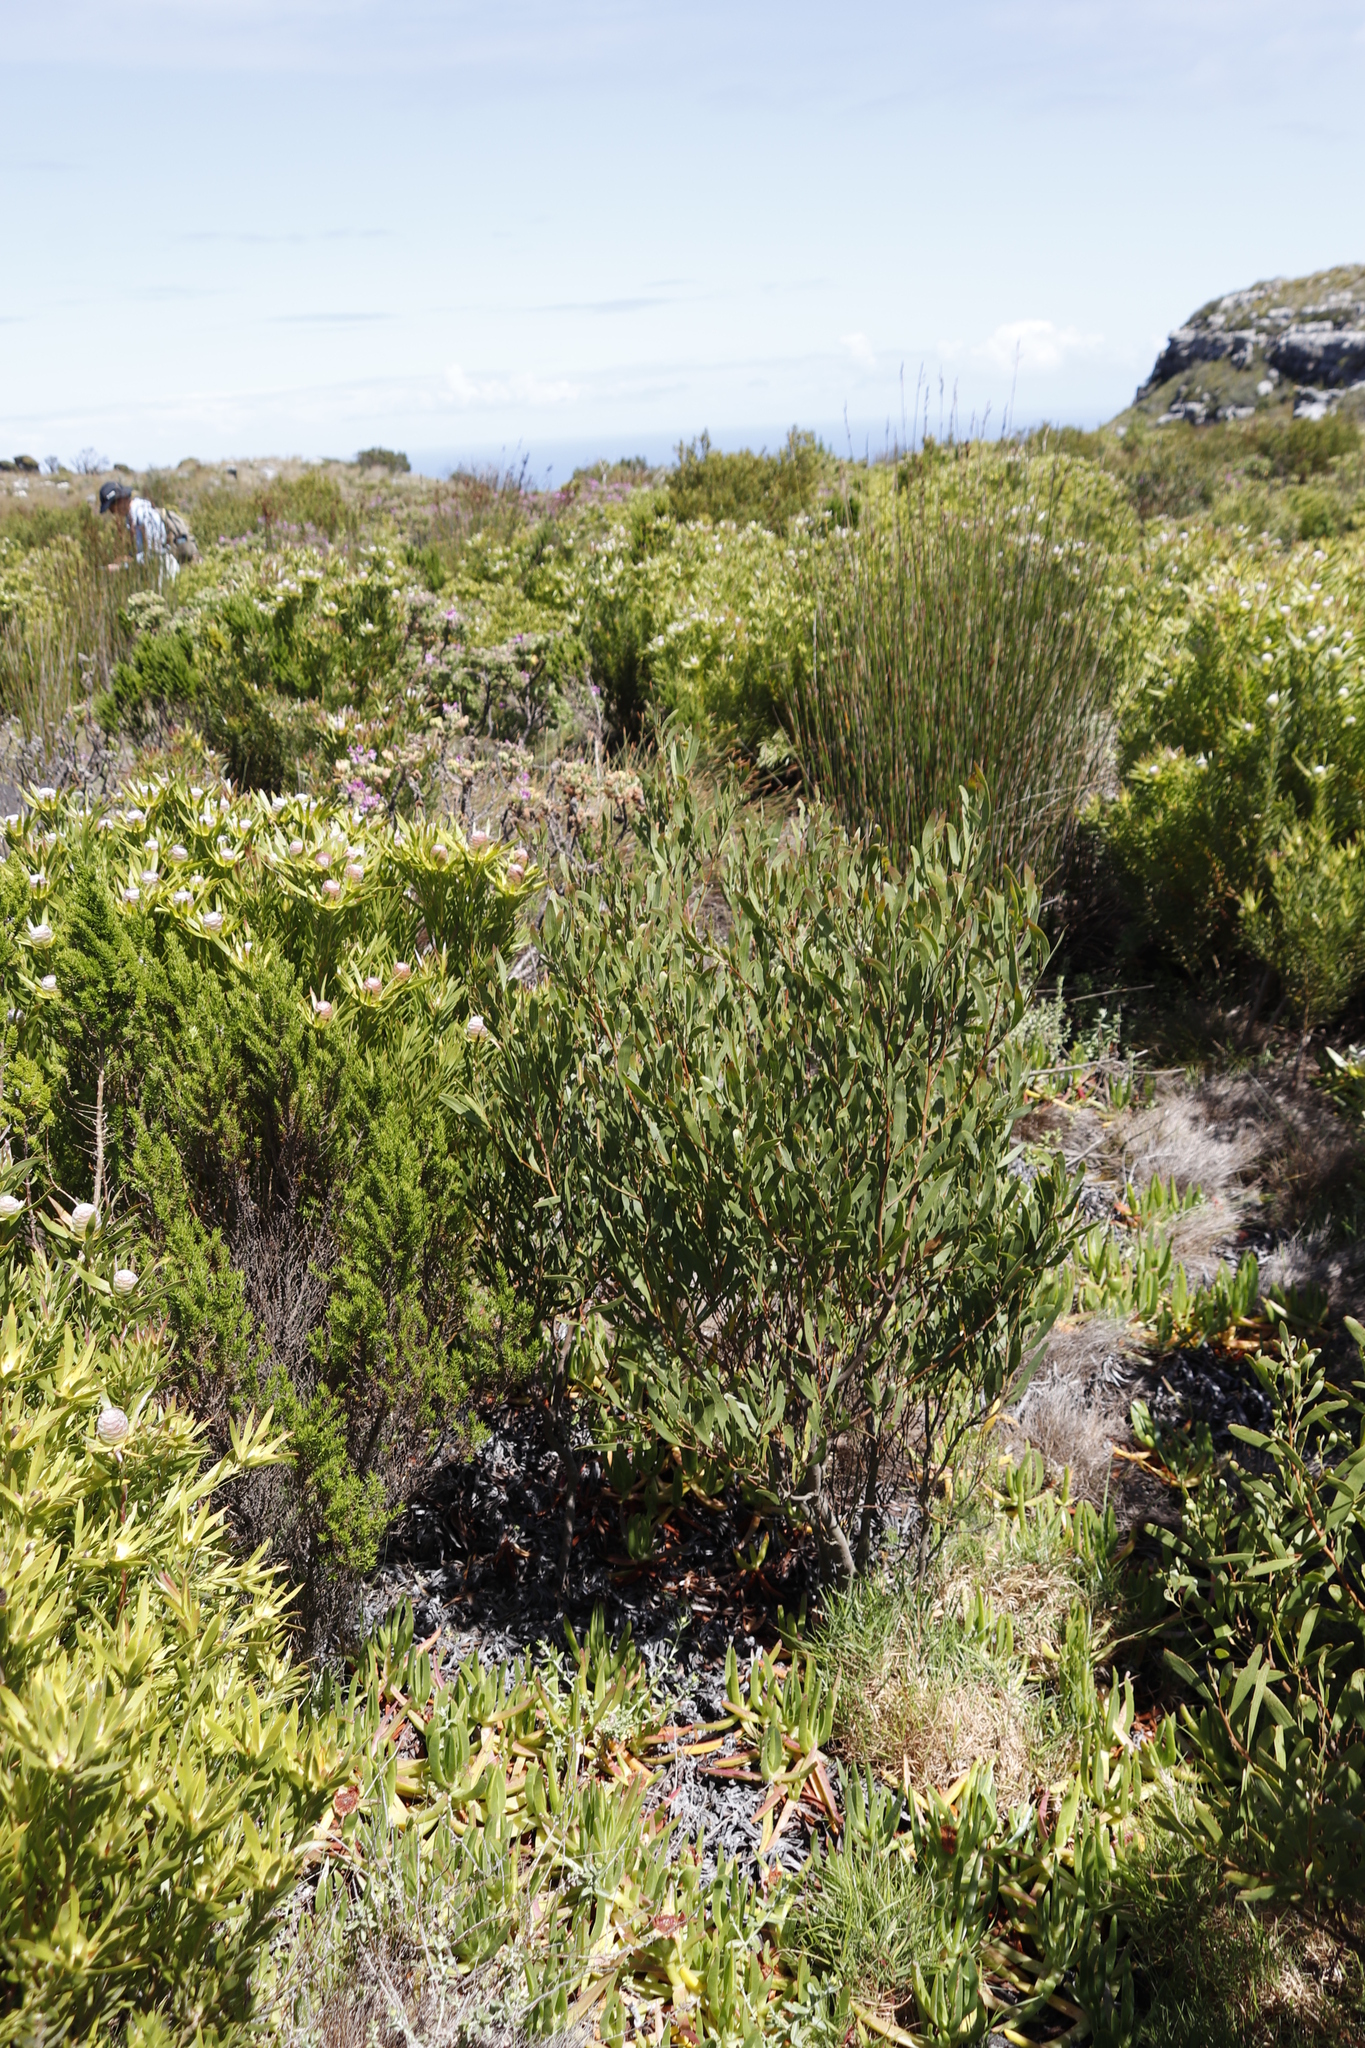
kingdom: Plantae
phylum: Tracheophyta
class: Magnoliopsida
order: Fabales
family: Fabaceae
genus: Acacia
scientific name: Acacia cyclops
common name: Coastal wattle
